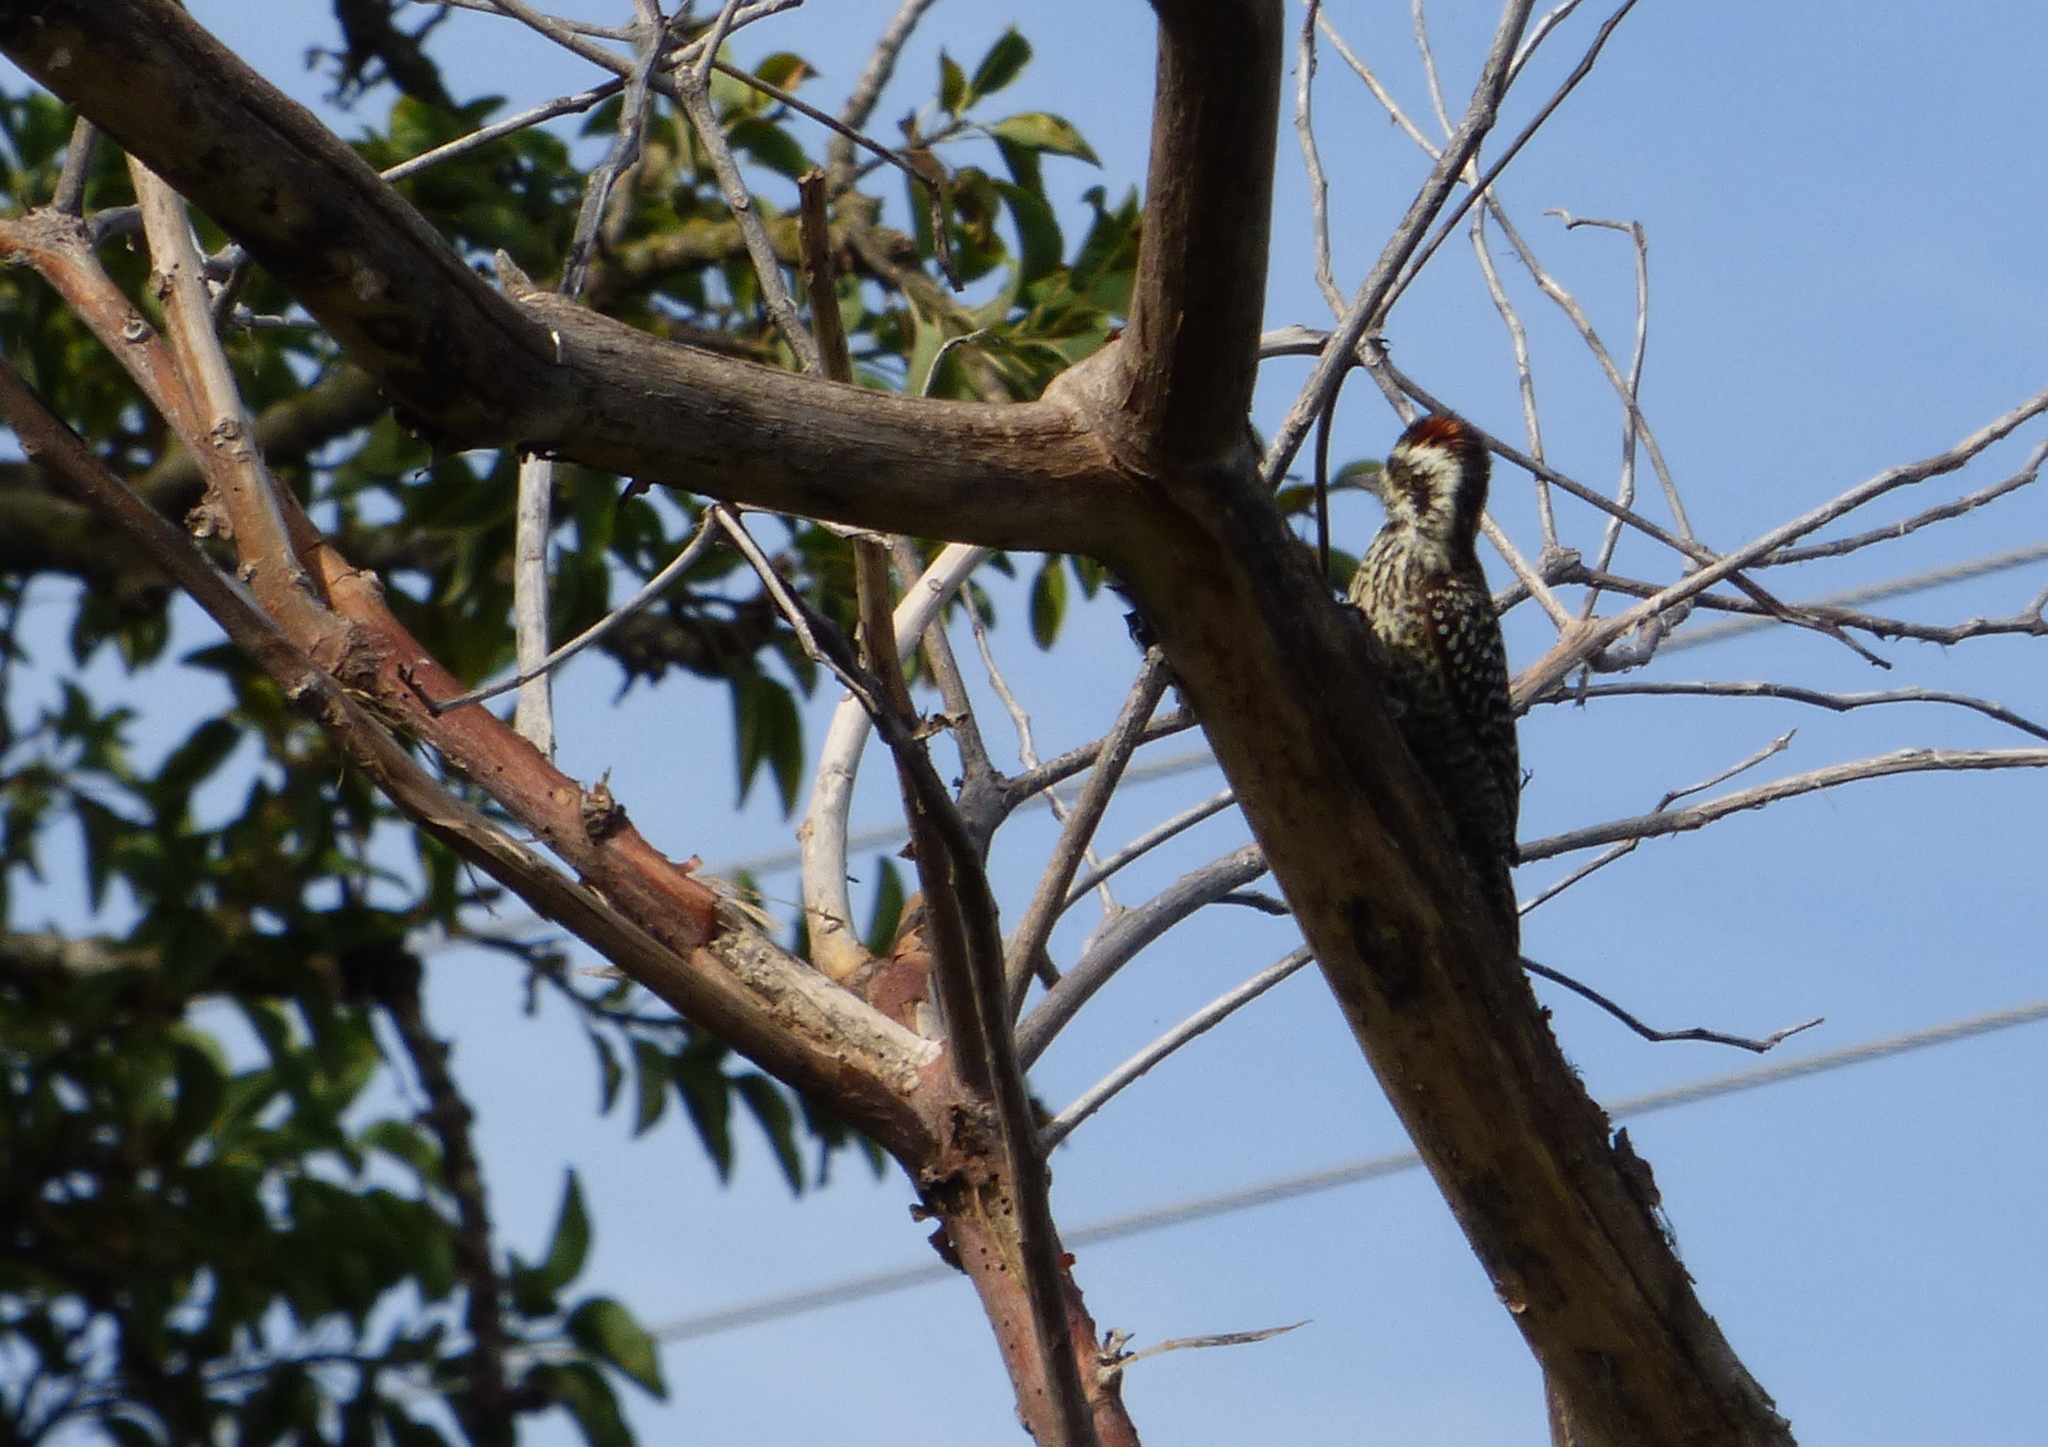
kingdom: Animalia
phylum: Chordata
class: Aves
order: Piciformes
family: Picidae
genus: Veniliornis
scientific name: Veniliornis mixtus
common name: Checkered woodpecker
